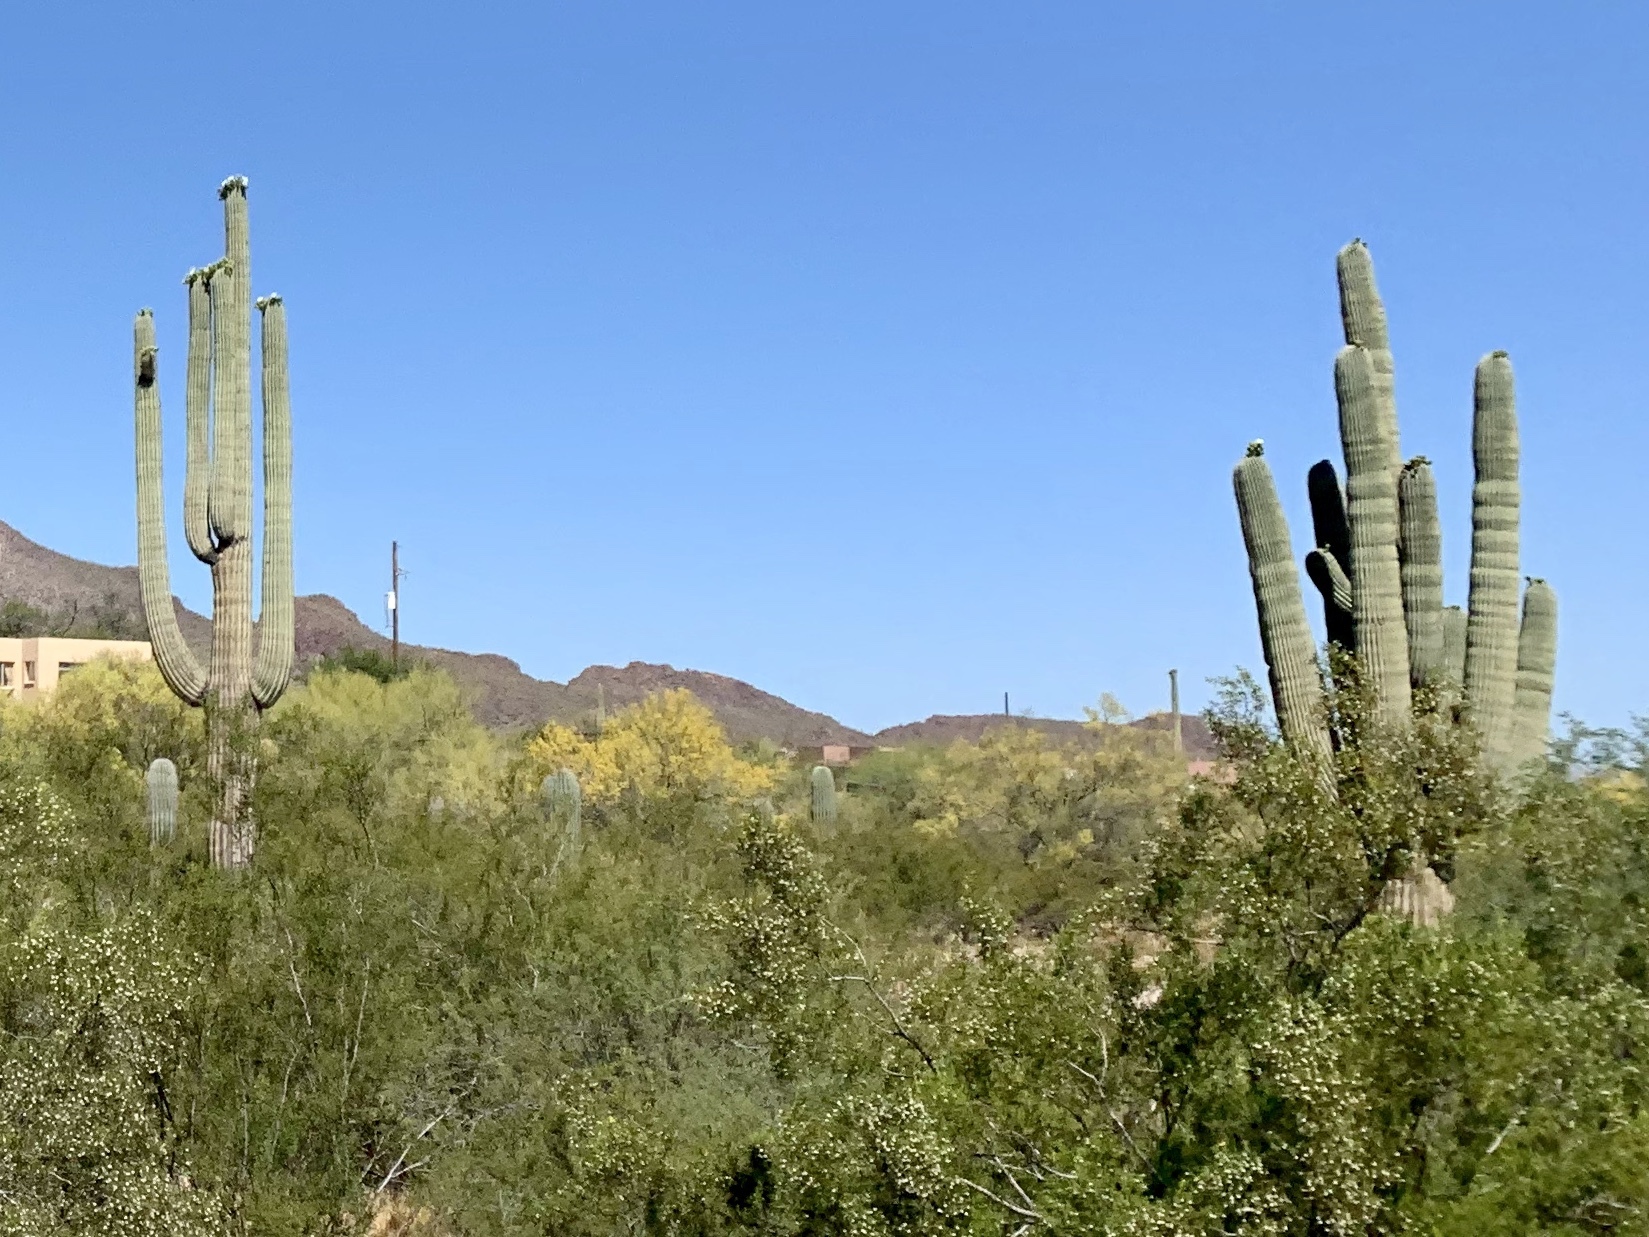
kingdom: Plantae
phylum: Tracheophyta
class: Magnoliopsida
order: Caryophyllales
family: Cactaceae
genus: Carnegiea
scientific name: Carnegiea gigantea
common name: Saguaro
